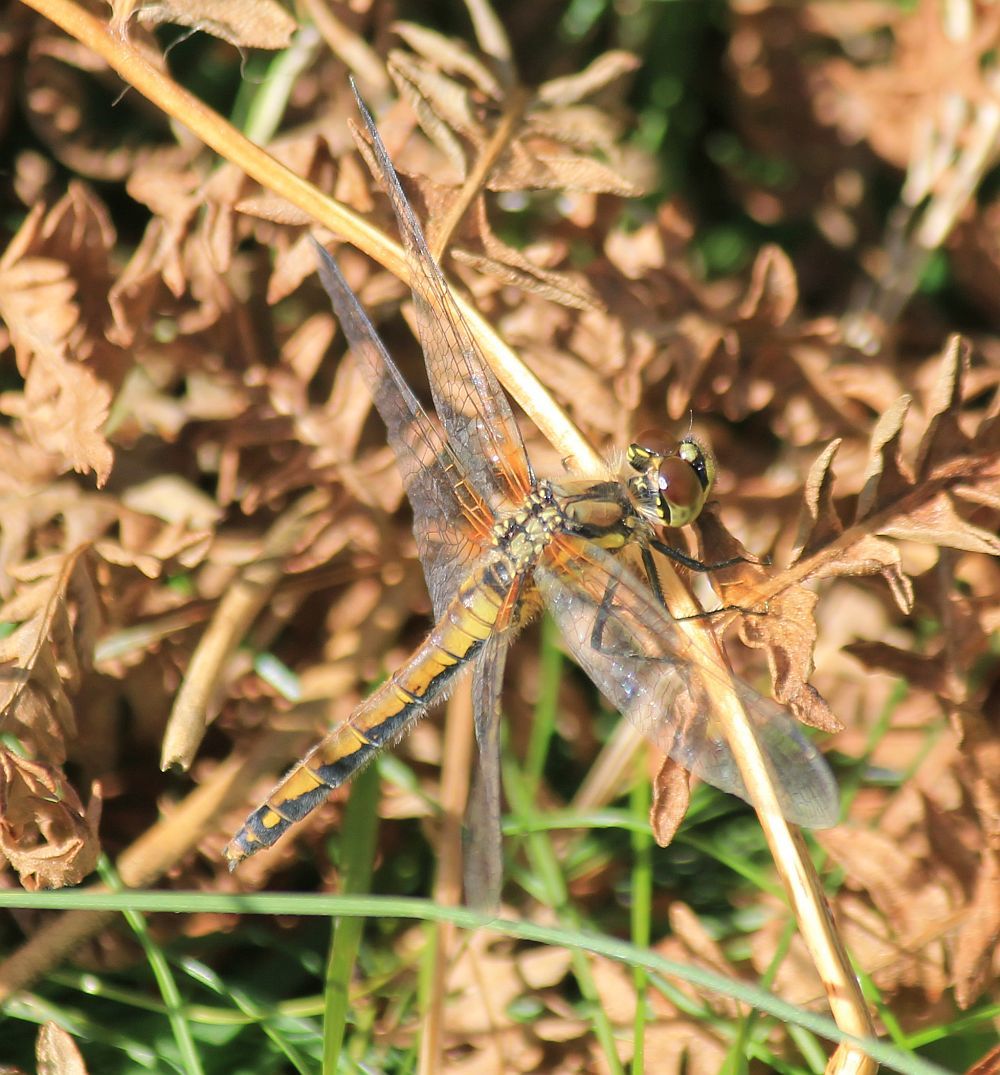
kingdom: Animalia
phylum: Arthropoda
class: Insecta
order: Odonata
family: Libellulidae
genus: Sympetrum
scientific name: Sympetrum danae
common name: Black darter
